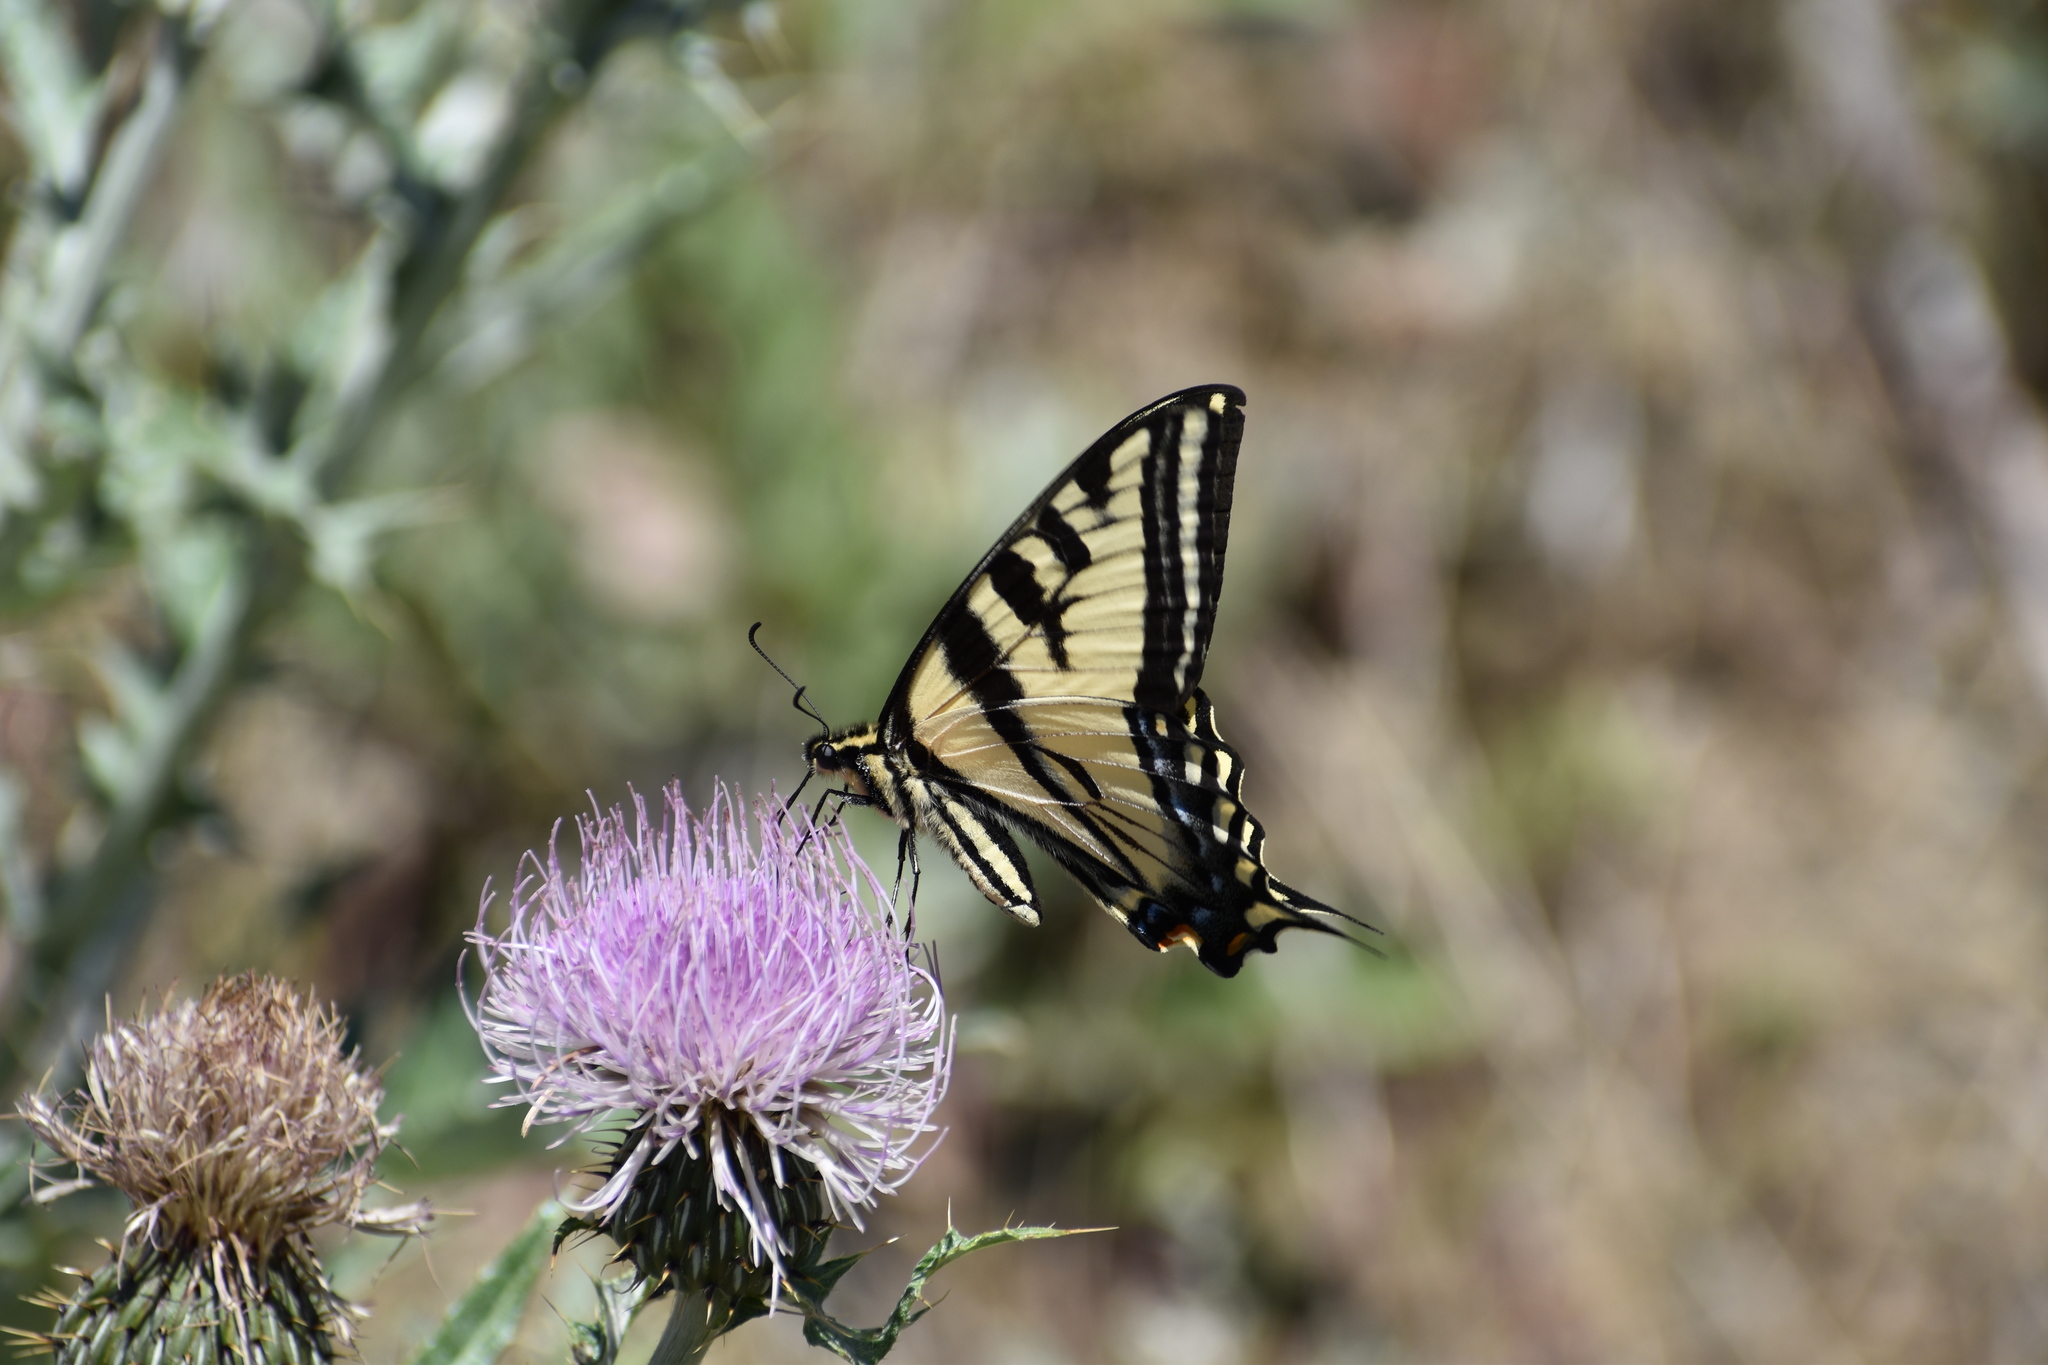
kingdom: Animalia
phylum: Arthropoda
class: Insecta
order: Lepidoptera
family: Papilionidae
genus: Papilio
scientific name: Papilio rutulus
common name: Western tiger swallowtail
